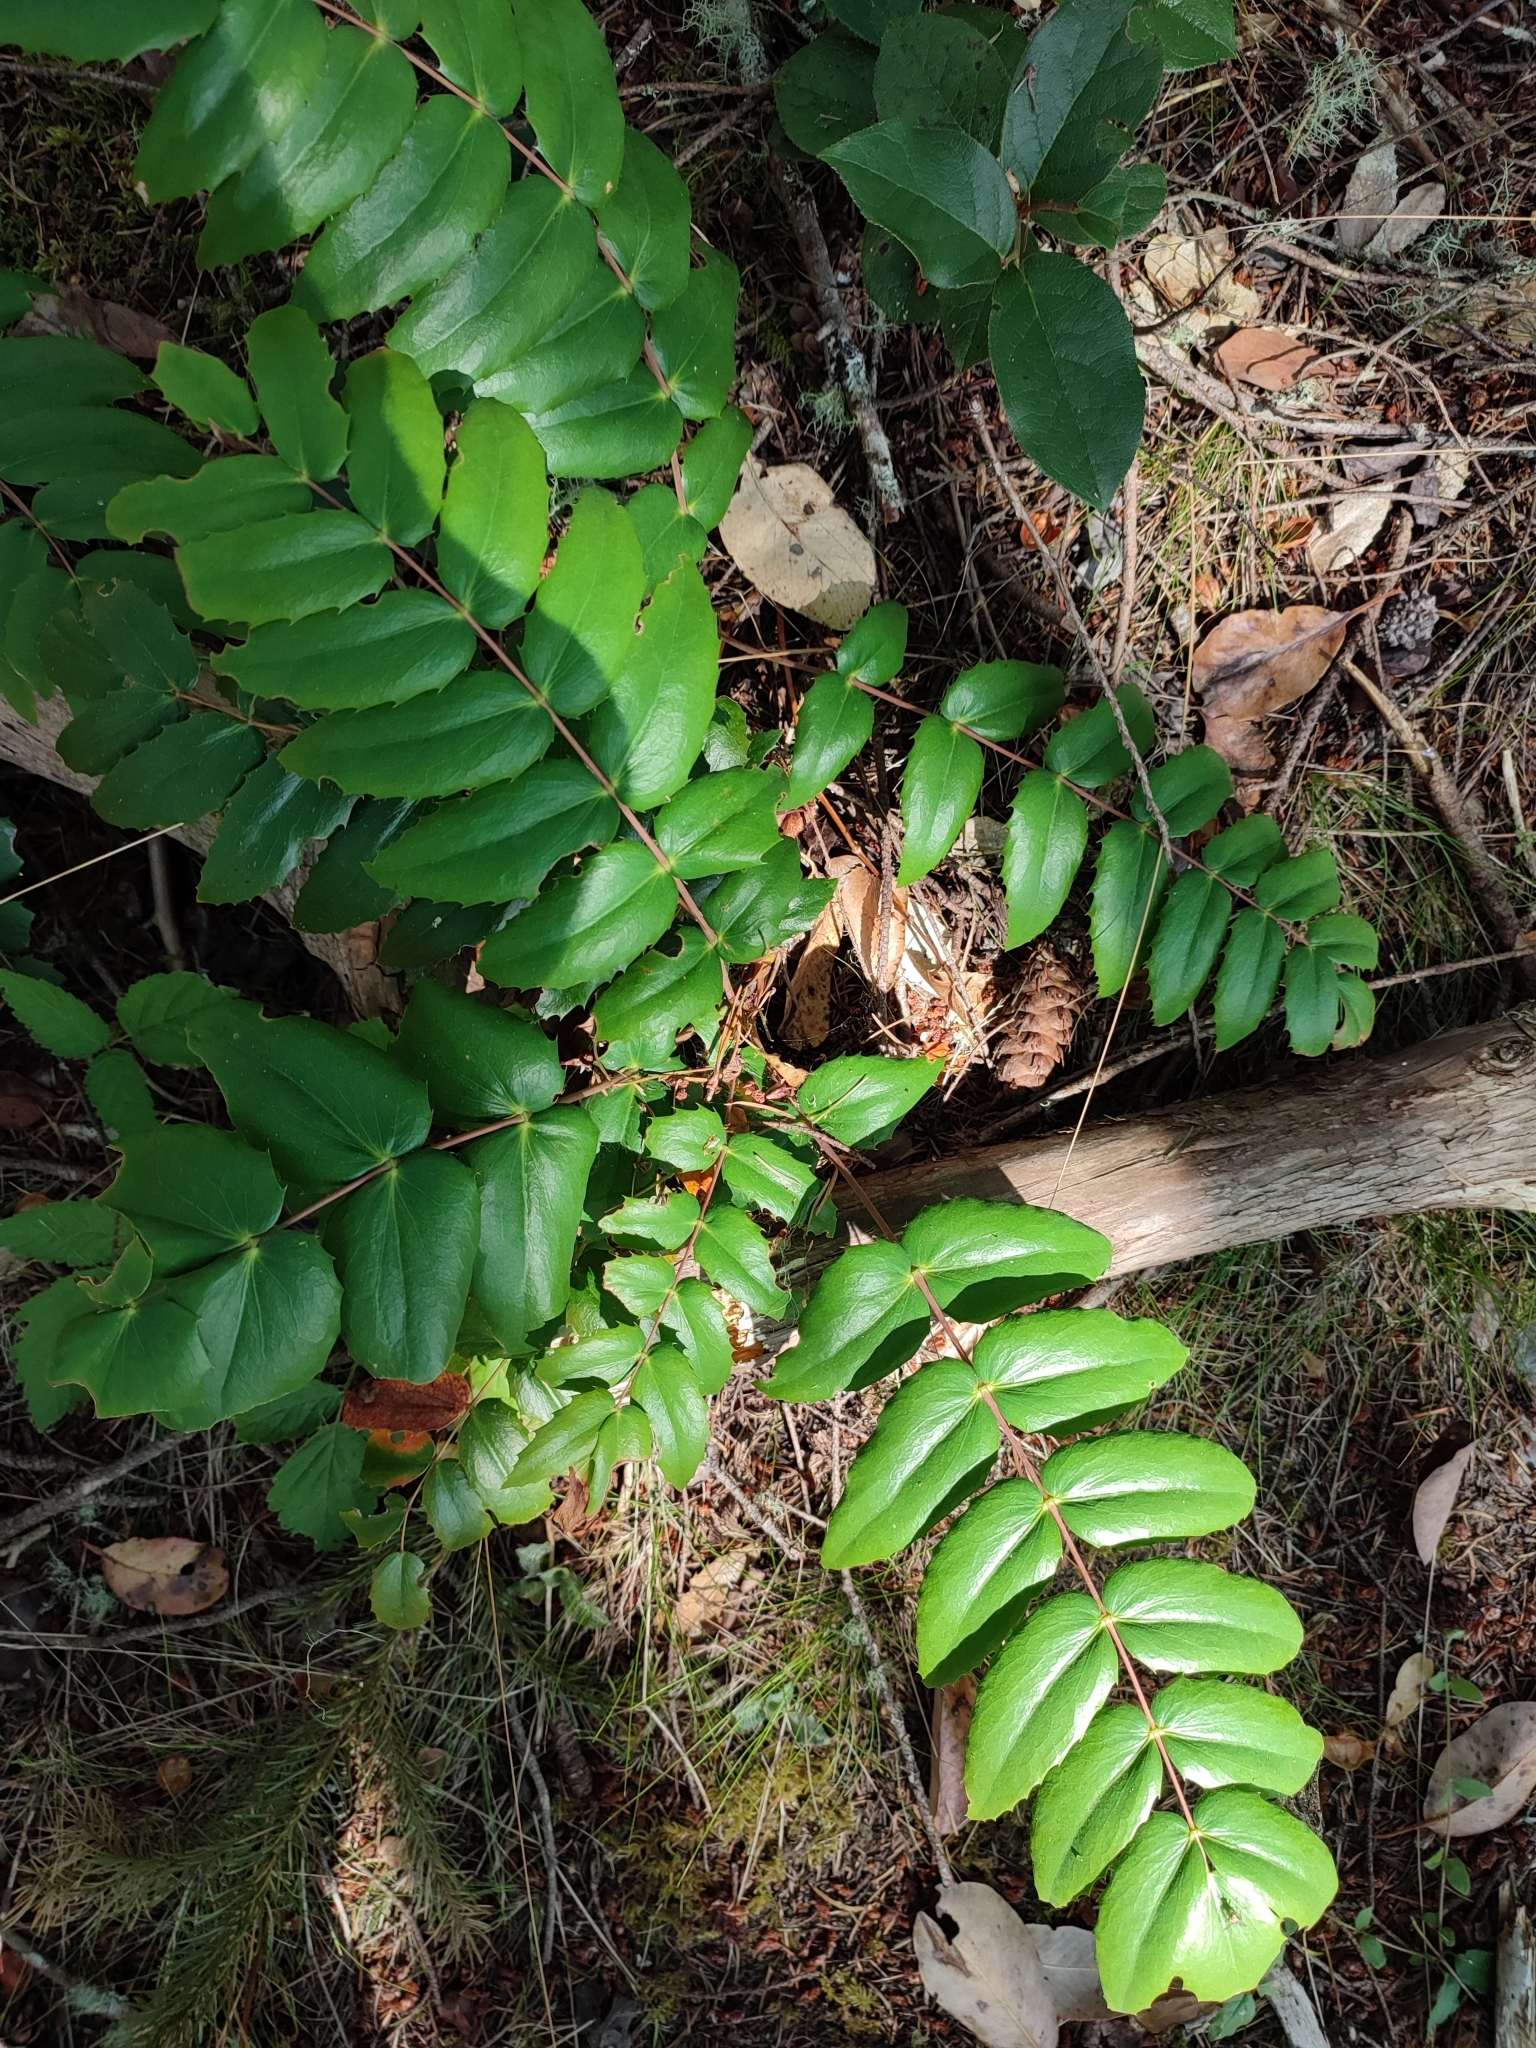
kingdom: Plantae
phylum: Tracheophyta
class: Magnoliopsida
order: Ranunculales
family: Berberidaceae
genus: Mahonia
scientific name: Mahonia nervosa
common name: Cascade oregon-grape
